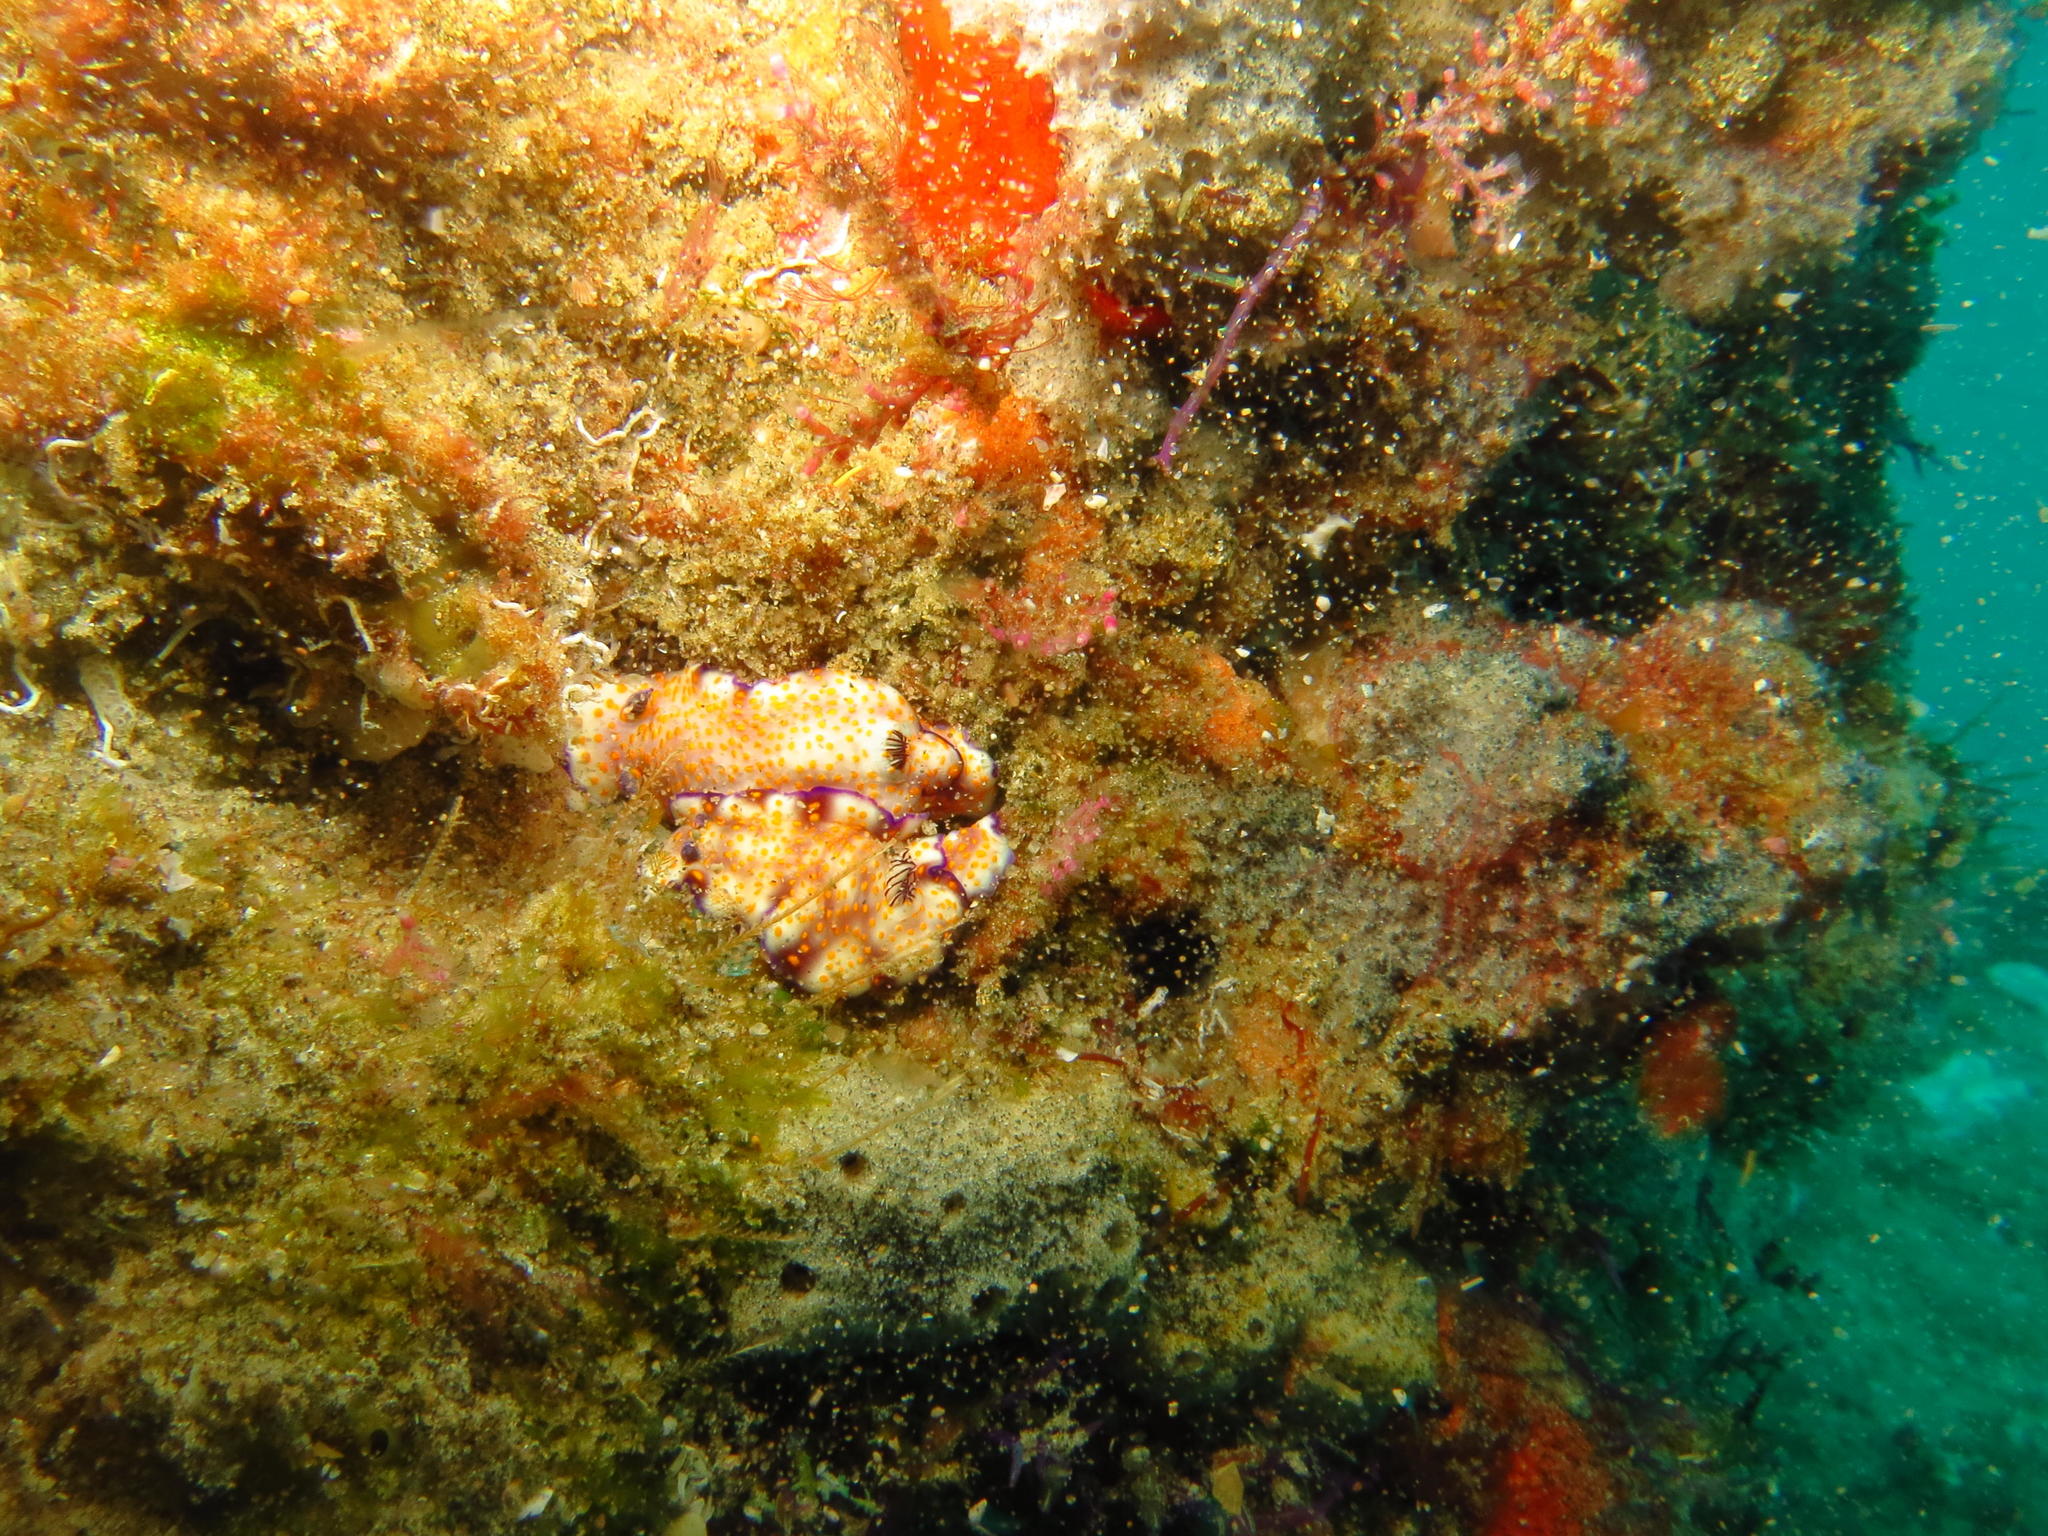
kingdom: Animalia
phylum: Mollusca
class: Gastropoda
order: Nudibranchia
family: Chromodorididae
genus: Hypselodoris
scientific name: Hypselodoris pulchella
